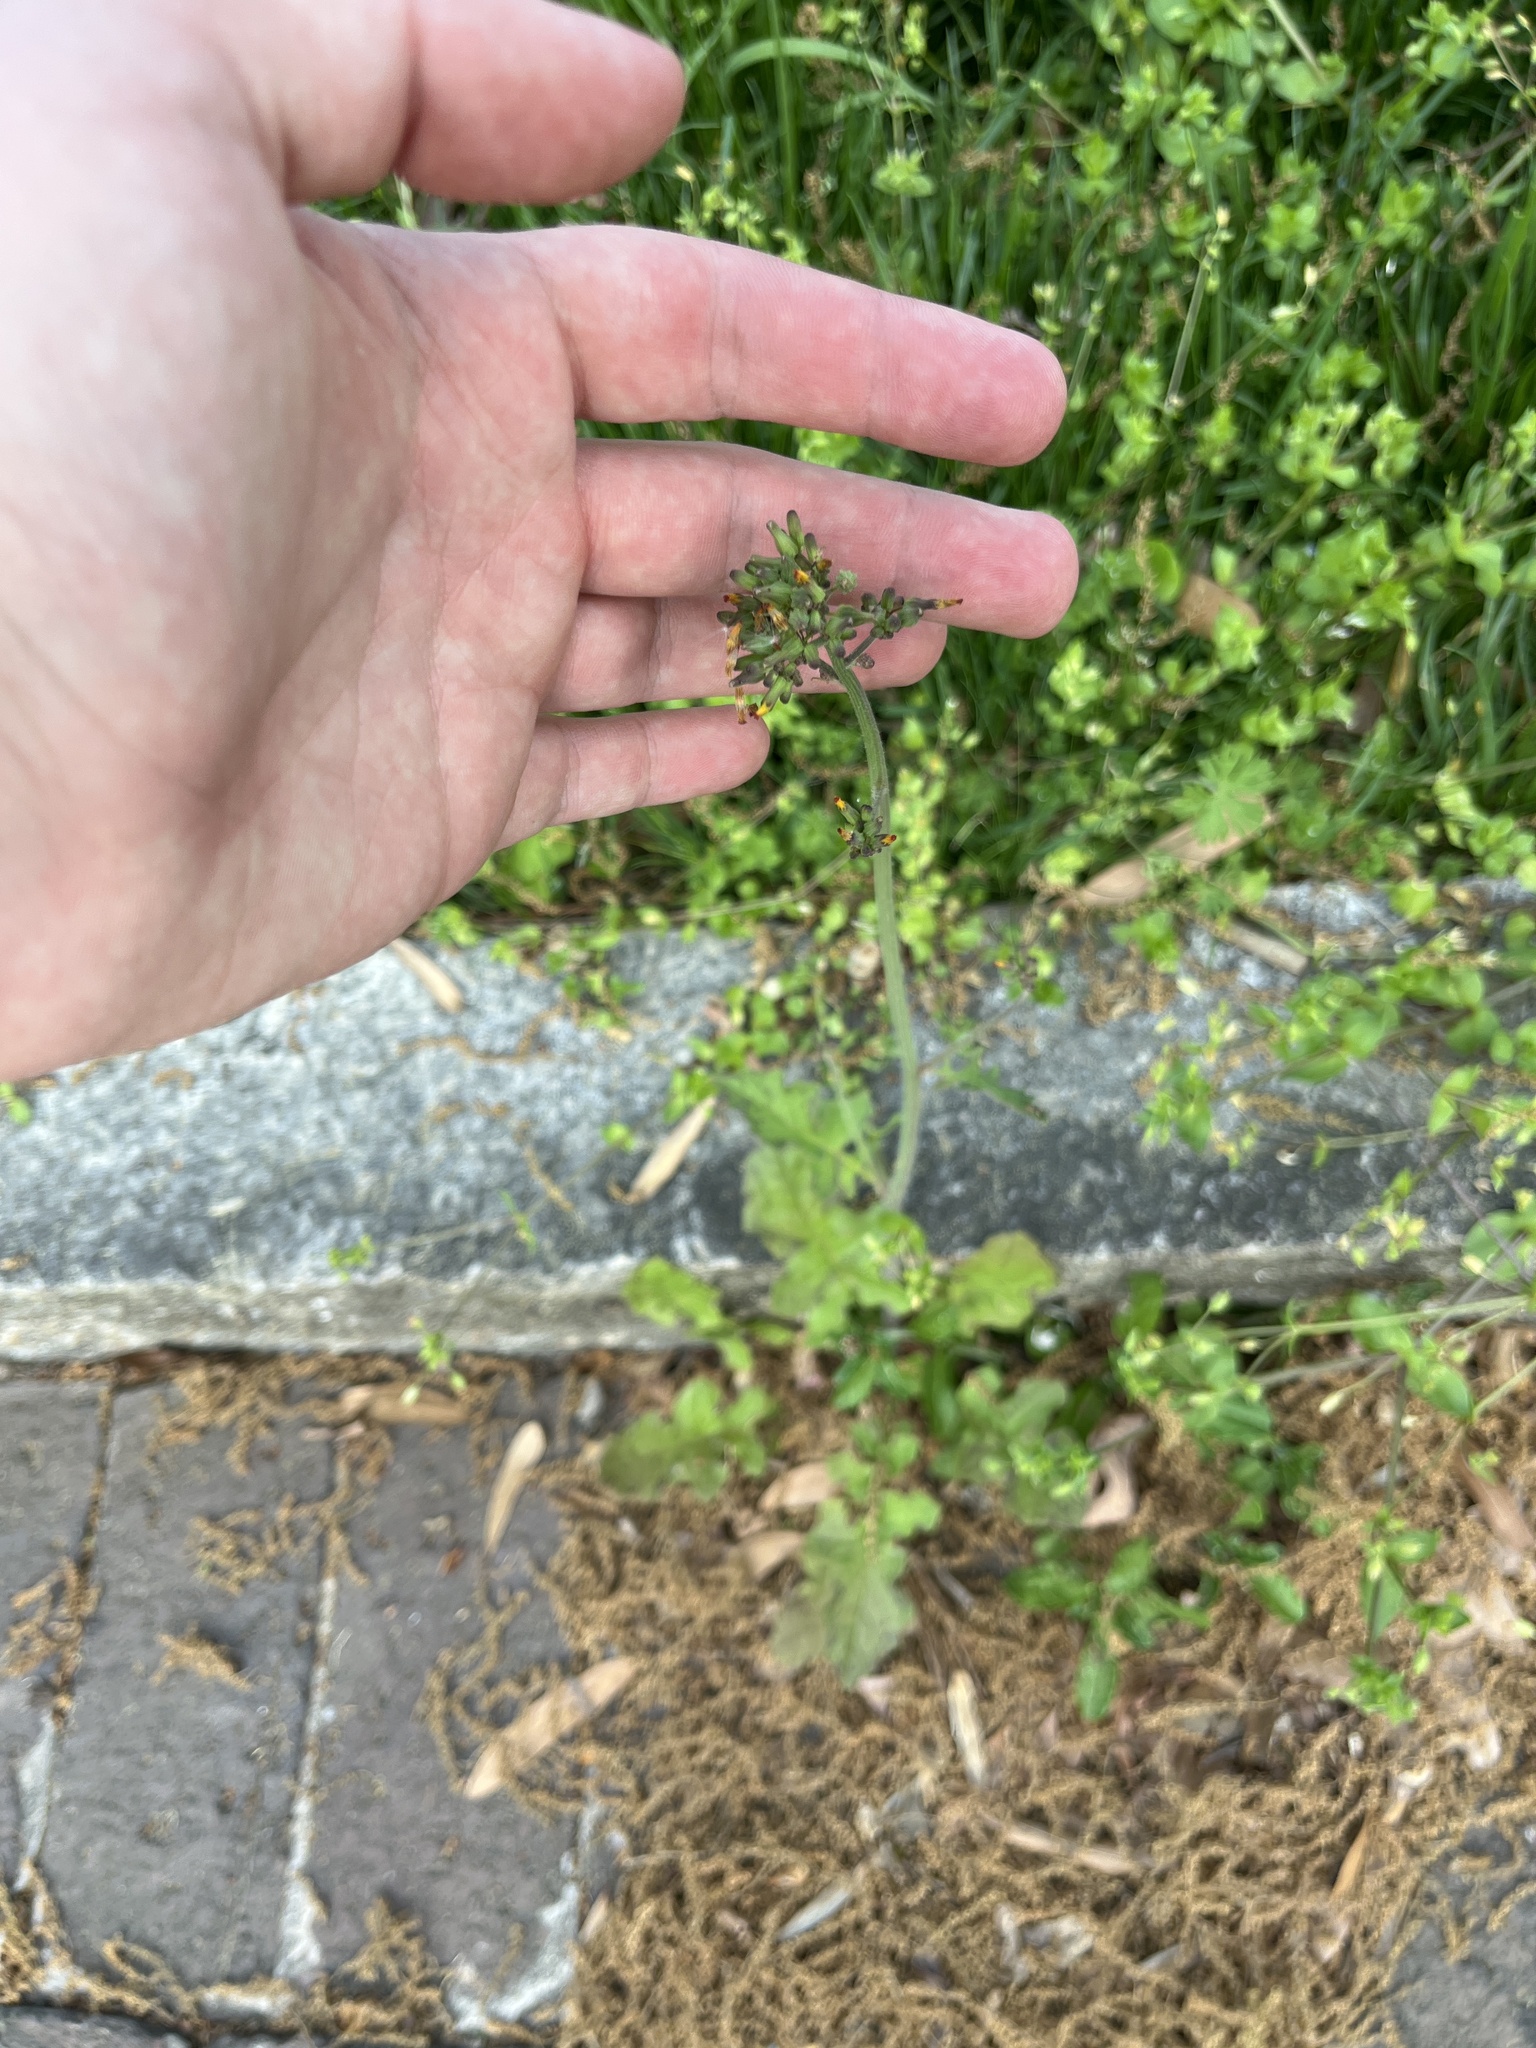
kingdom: Plantae
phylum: Tracheophyta
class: Magnoliopsida
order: Asterales
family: Asteraceae
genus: Youngia
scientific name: Youngia japonica
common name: Oriental false hawksbeard
